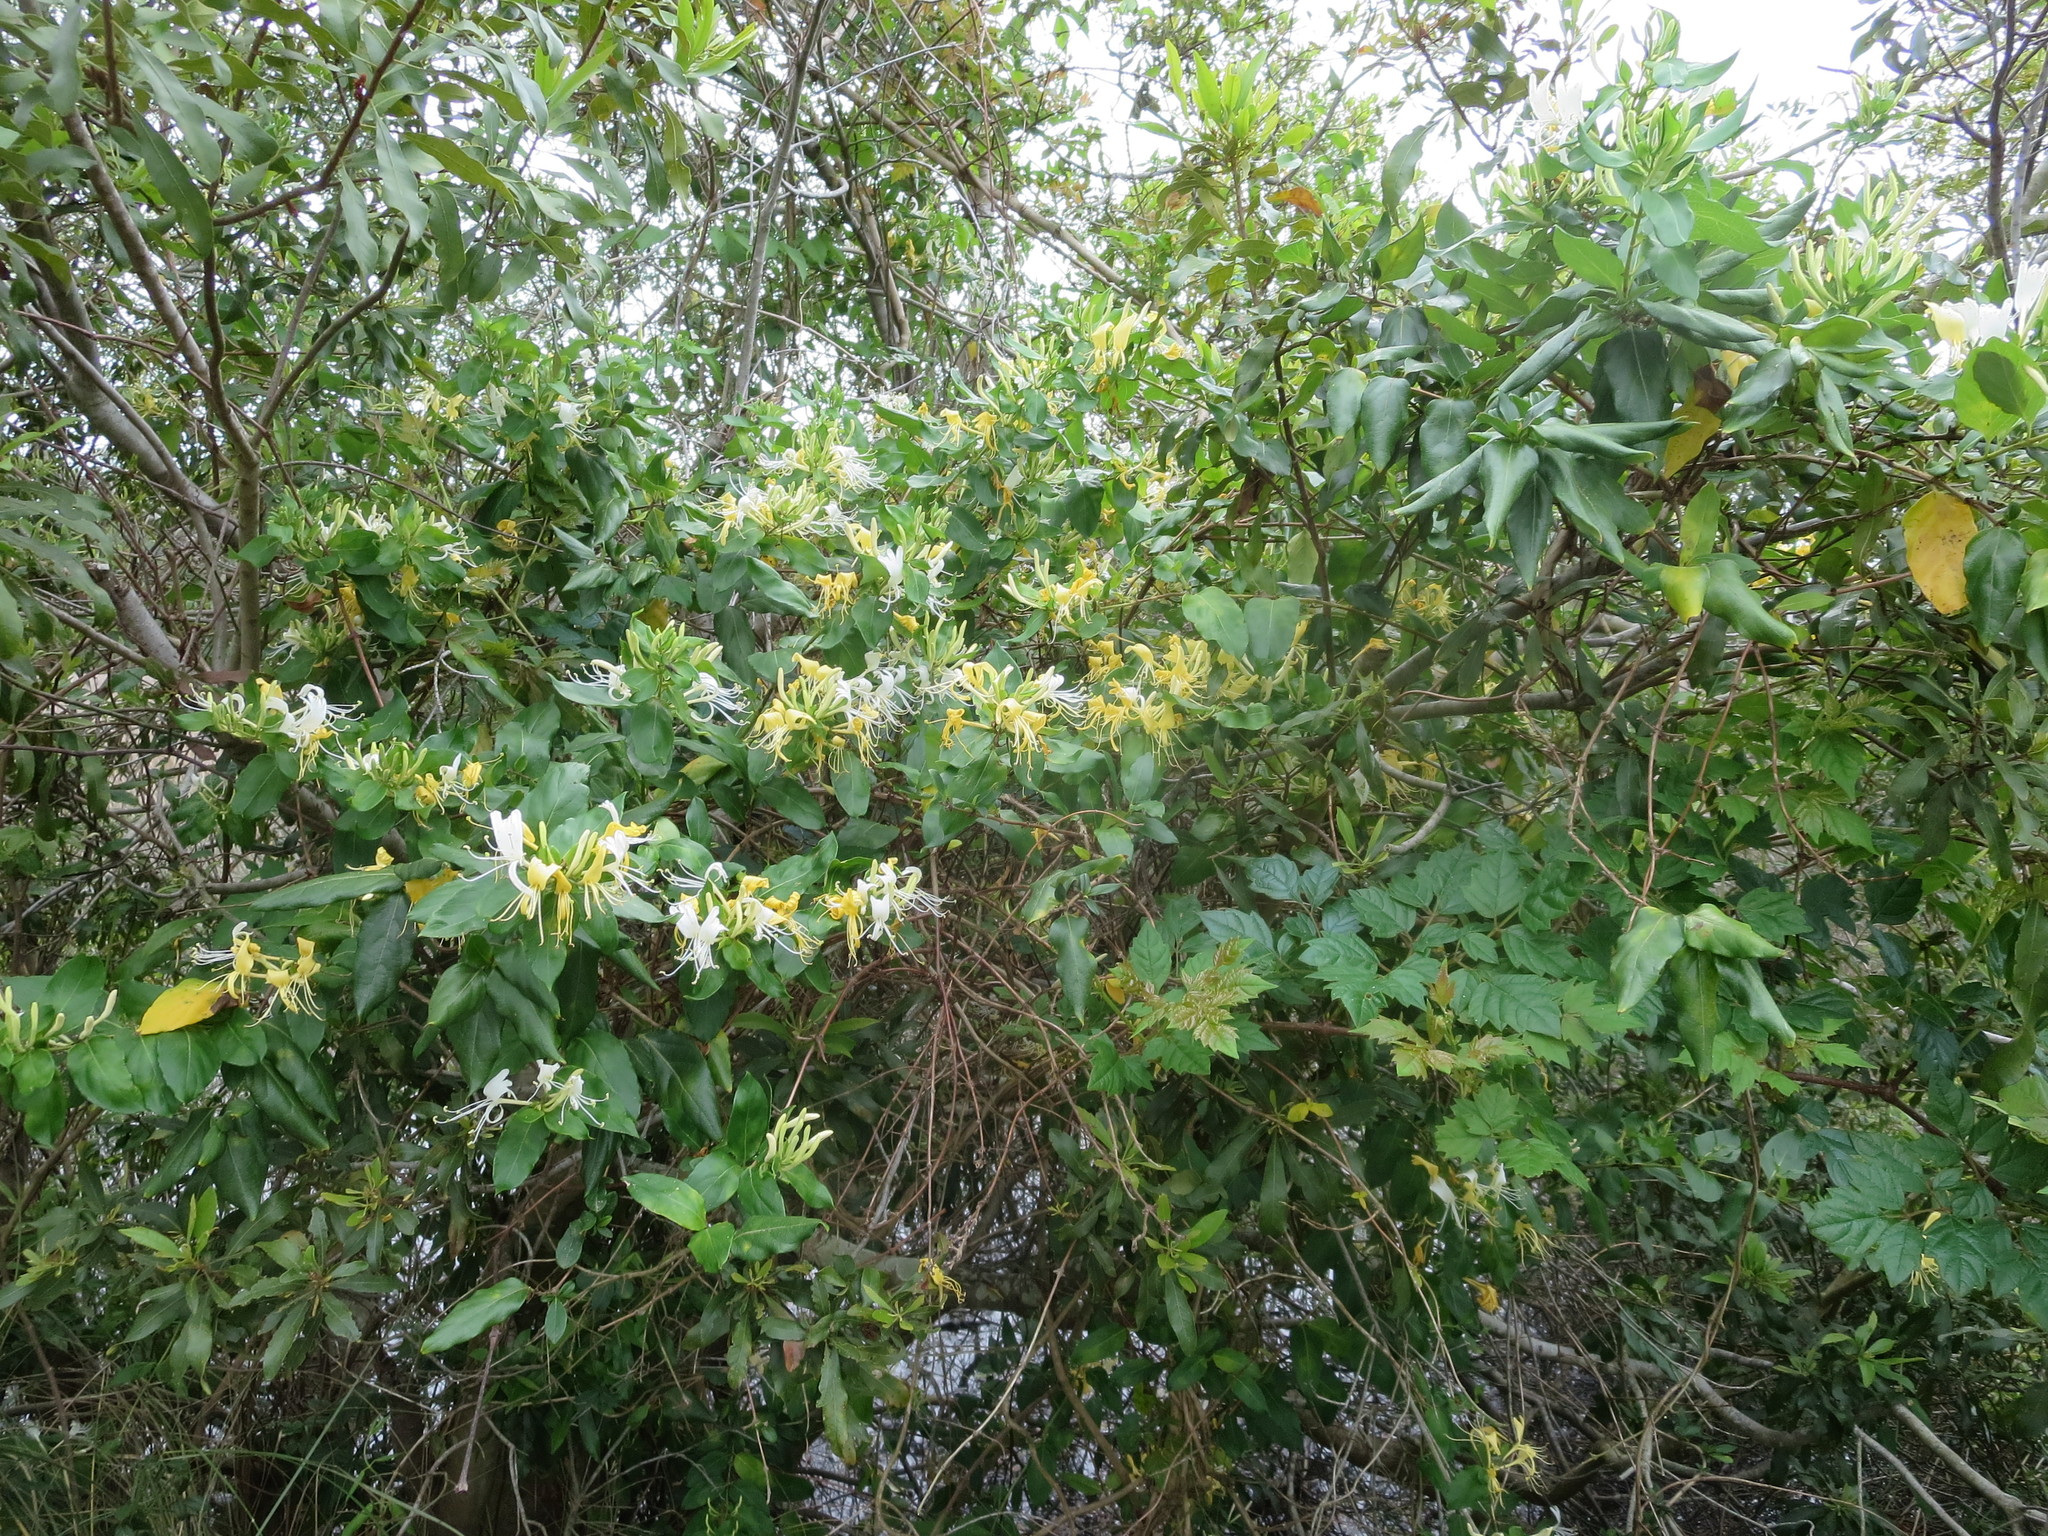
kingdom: Plantae
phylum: Tracheophyta
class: Magnoliopsida
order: Dipsacales
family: Caprifoliaceae
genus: Lonicera
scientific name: Lonicera japonica
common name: Japanese honeysuckle
